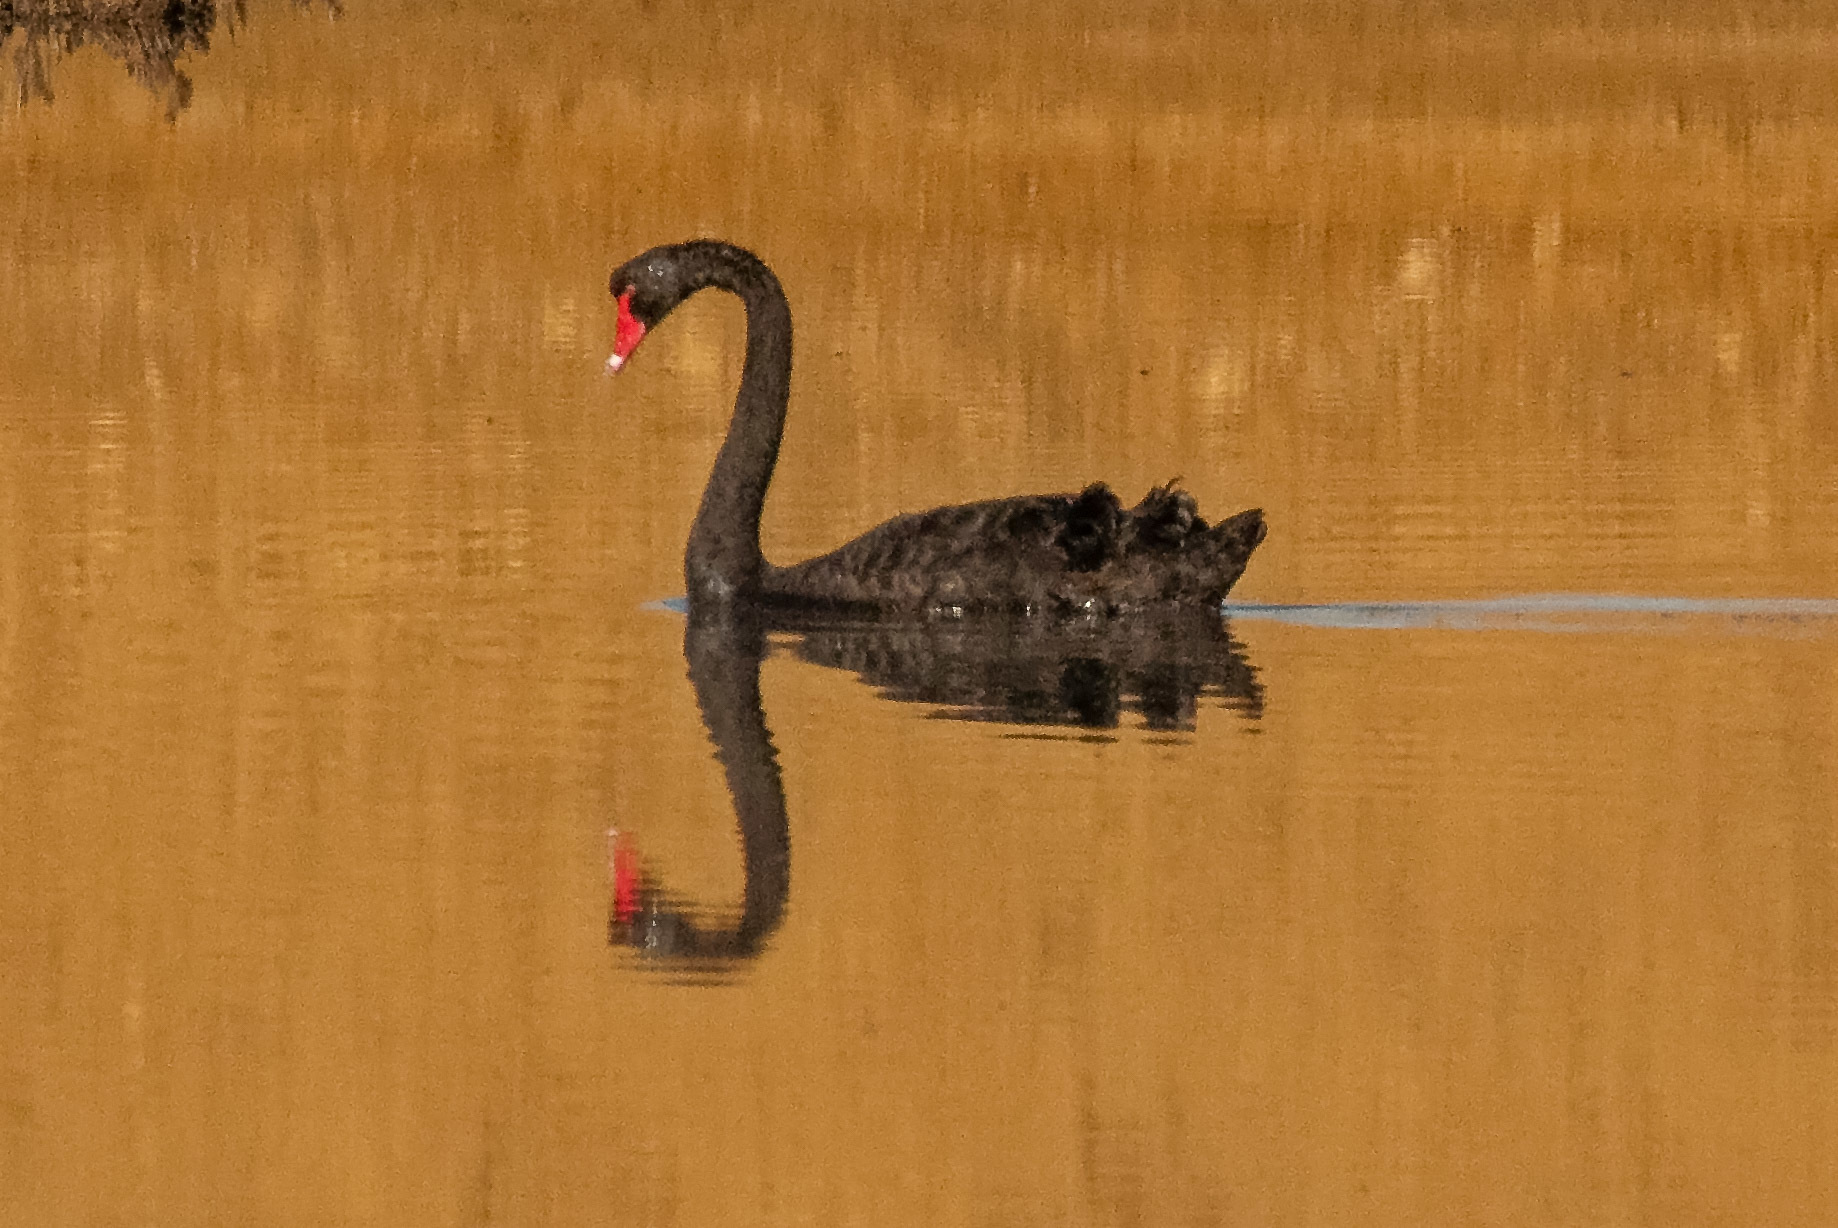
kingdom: Animalia
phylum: Chordata
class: Aves
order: Anseriformes
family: Anatidae
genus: Cygnus
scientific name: Cygnus atratus
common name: Black swan
